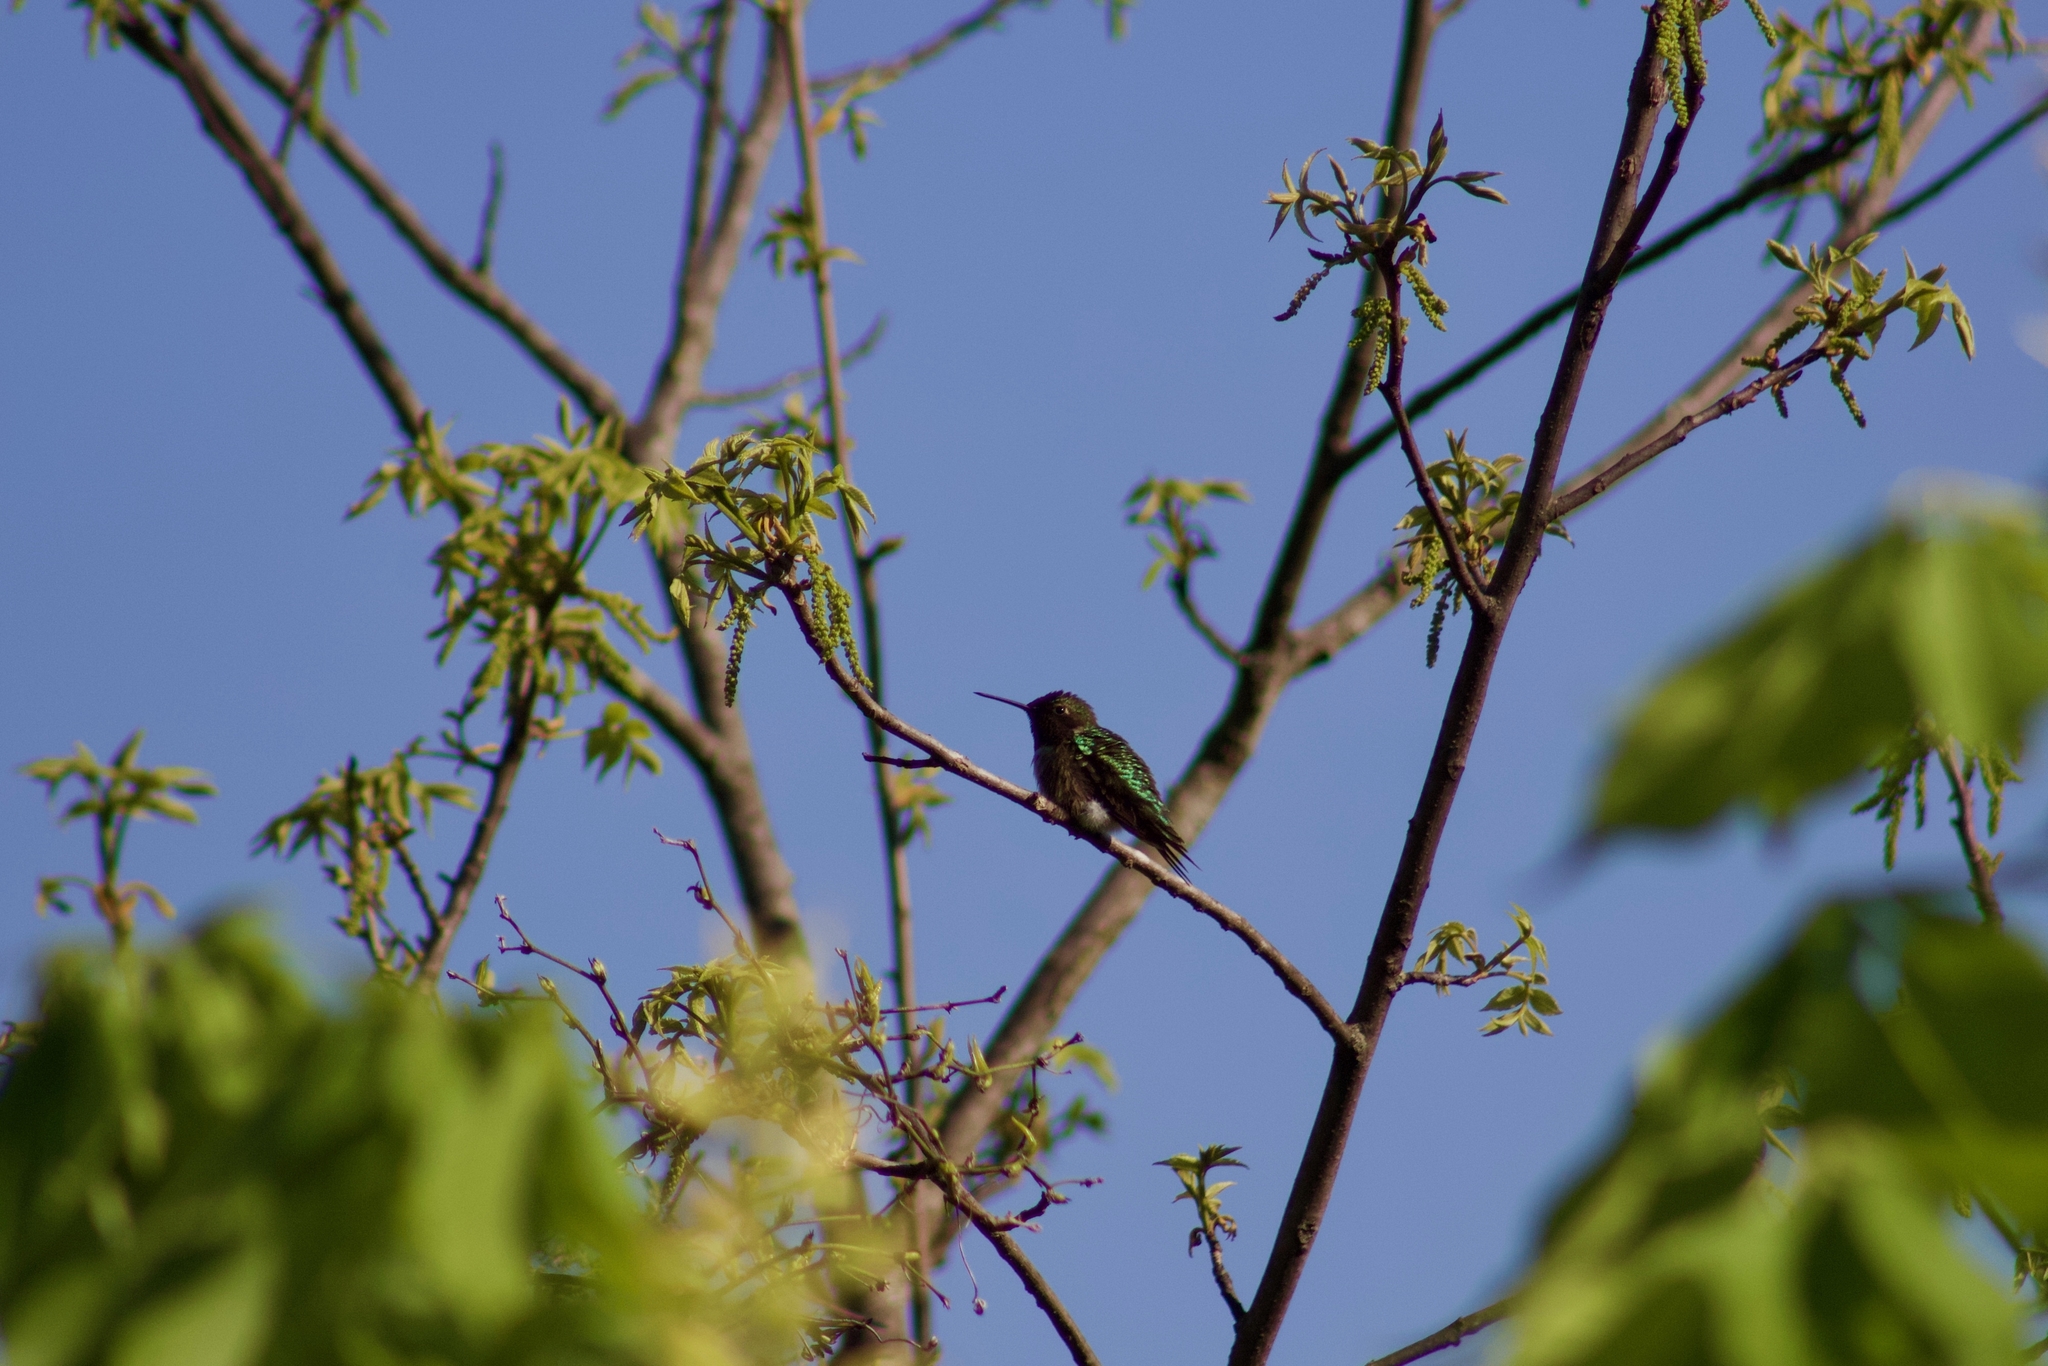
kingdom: Animalia
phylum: Chordata
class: Aves
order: Apodiformes
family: Trochilidae
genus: Archilochus
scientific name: Archilochus colubris
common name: Ruby-throated hummingbird
